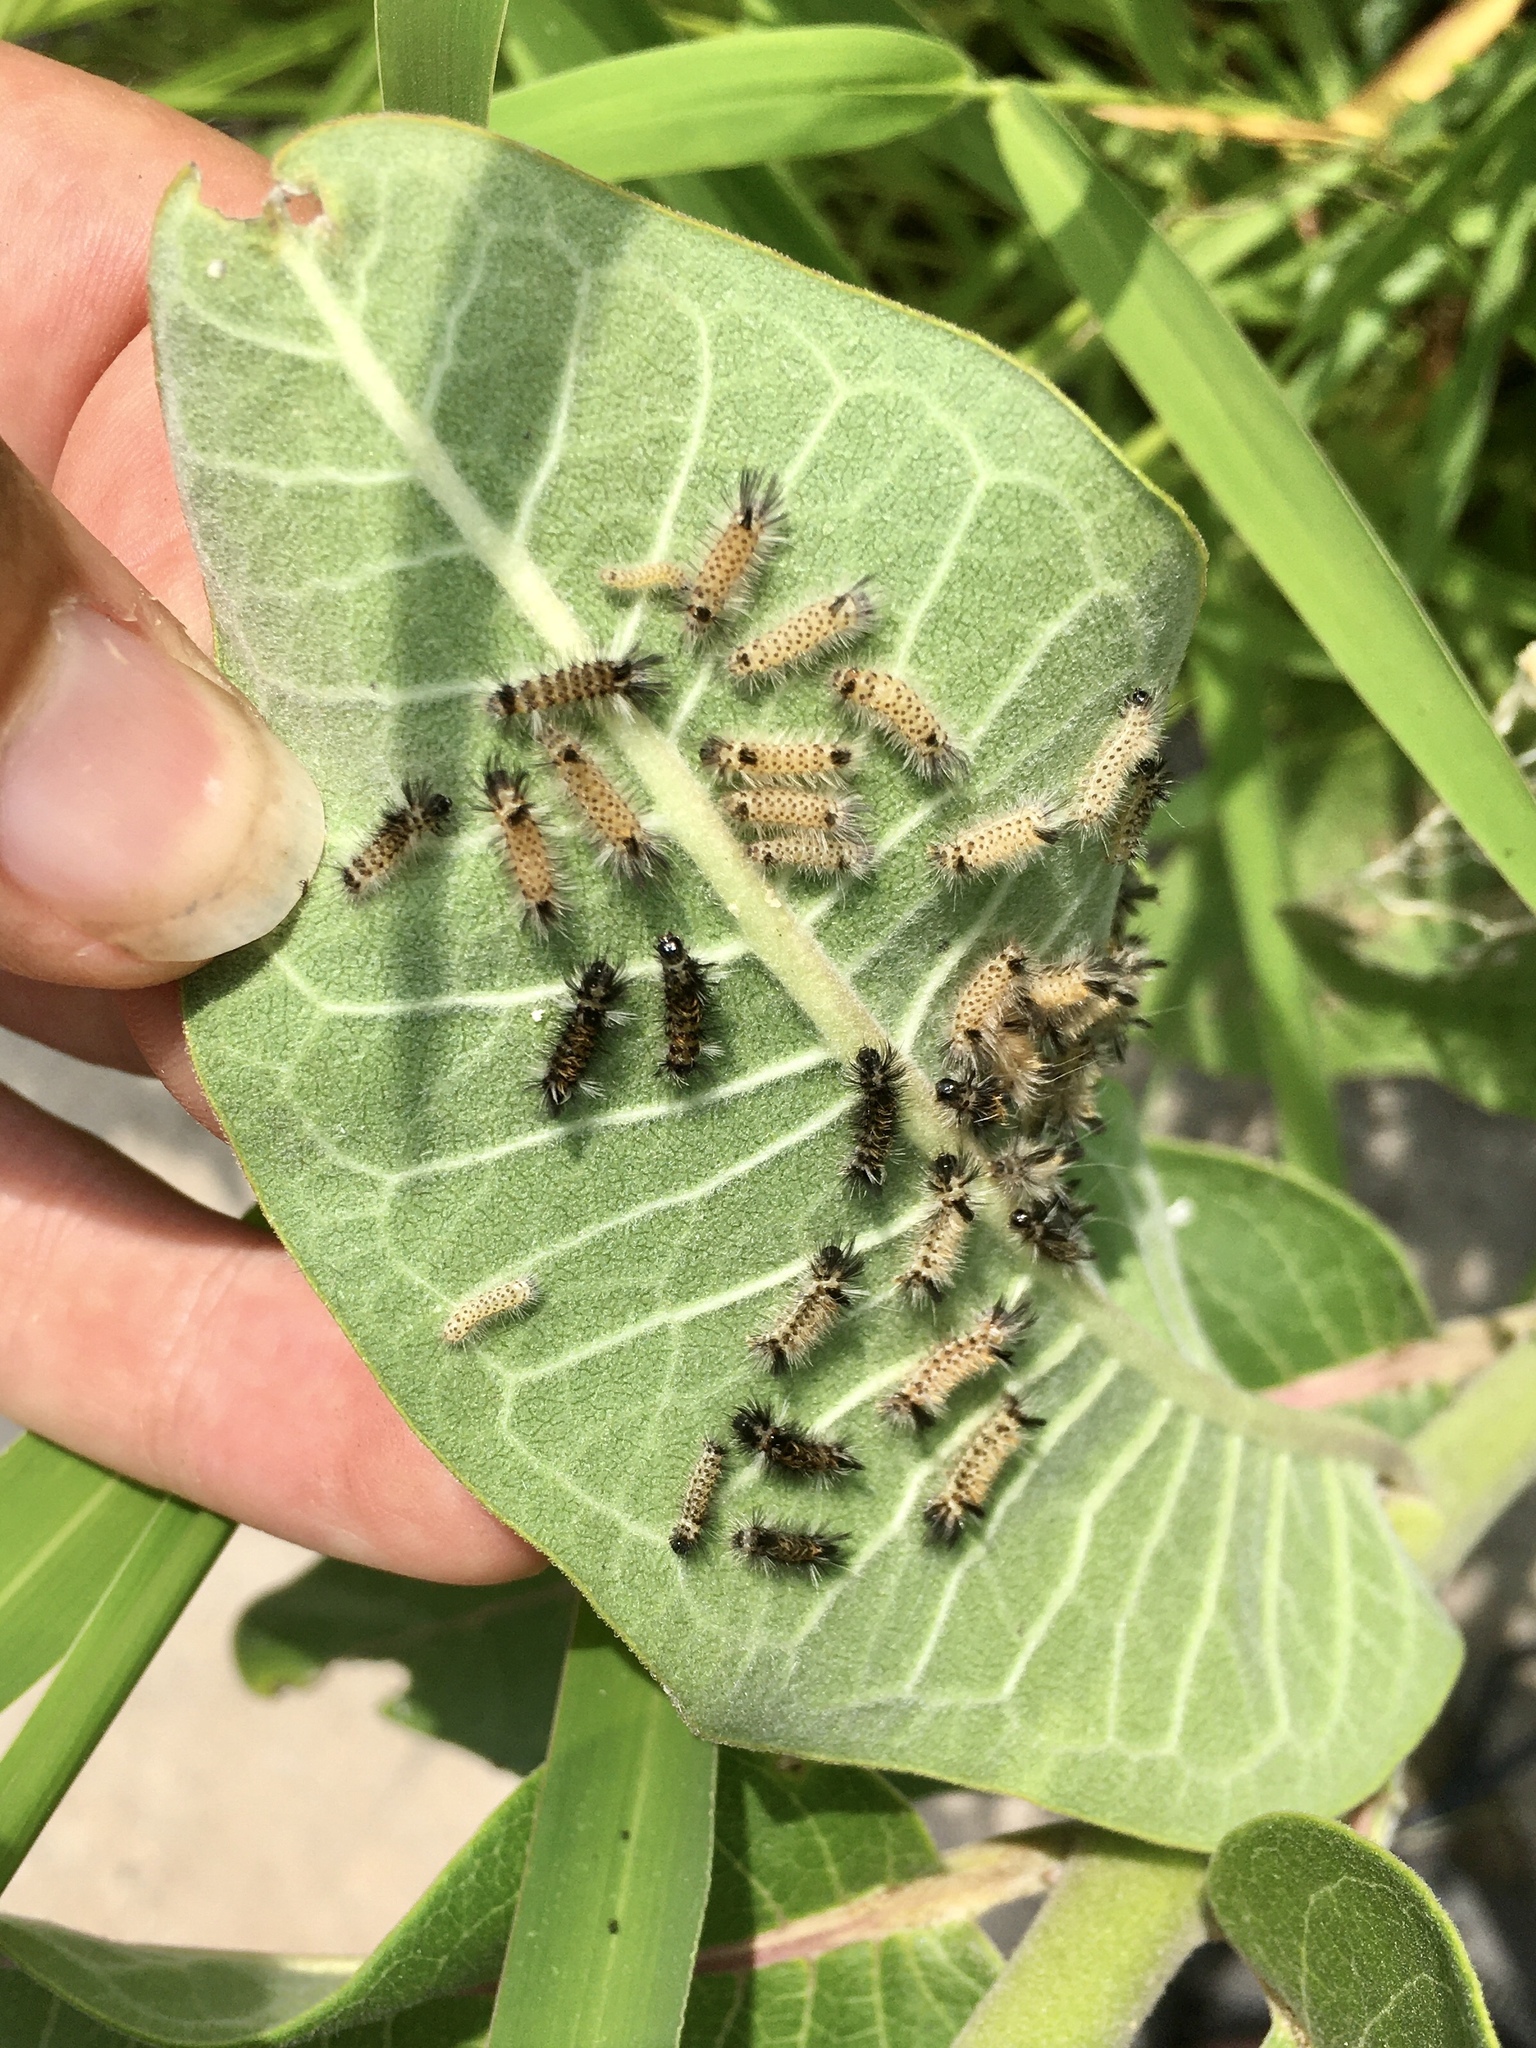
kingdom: Animalia
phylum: Arthropoda
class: Insecta
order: Lepidoptera
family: Erebidae
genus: Euchaetes
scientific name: Euchaetes egle
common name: Milkweed tussock moth
